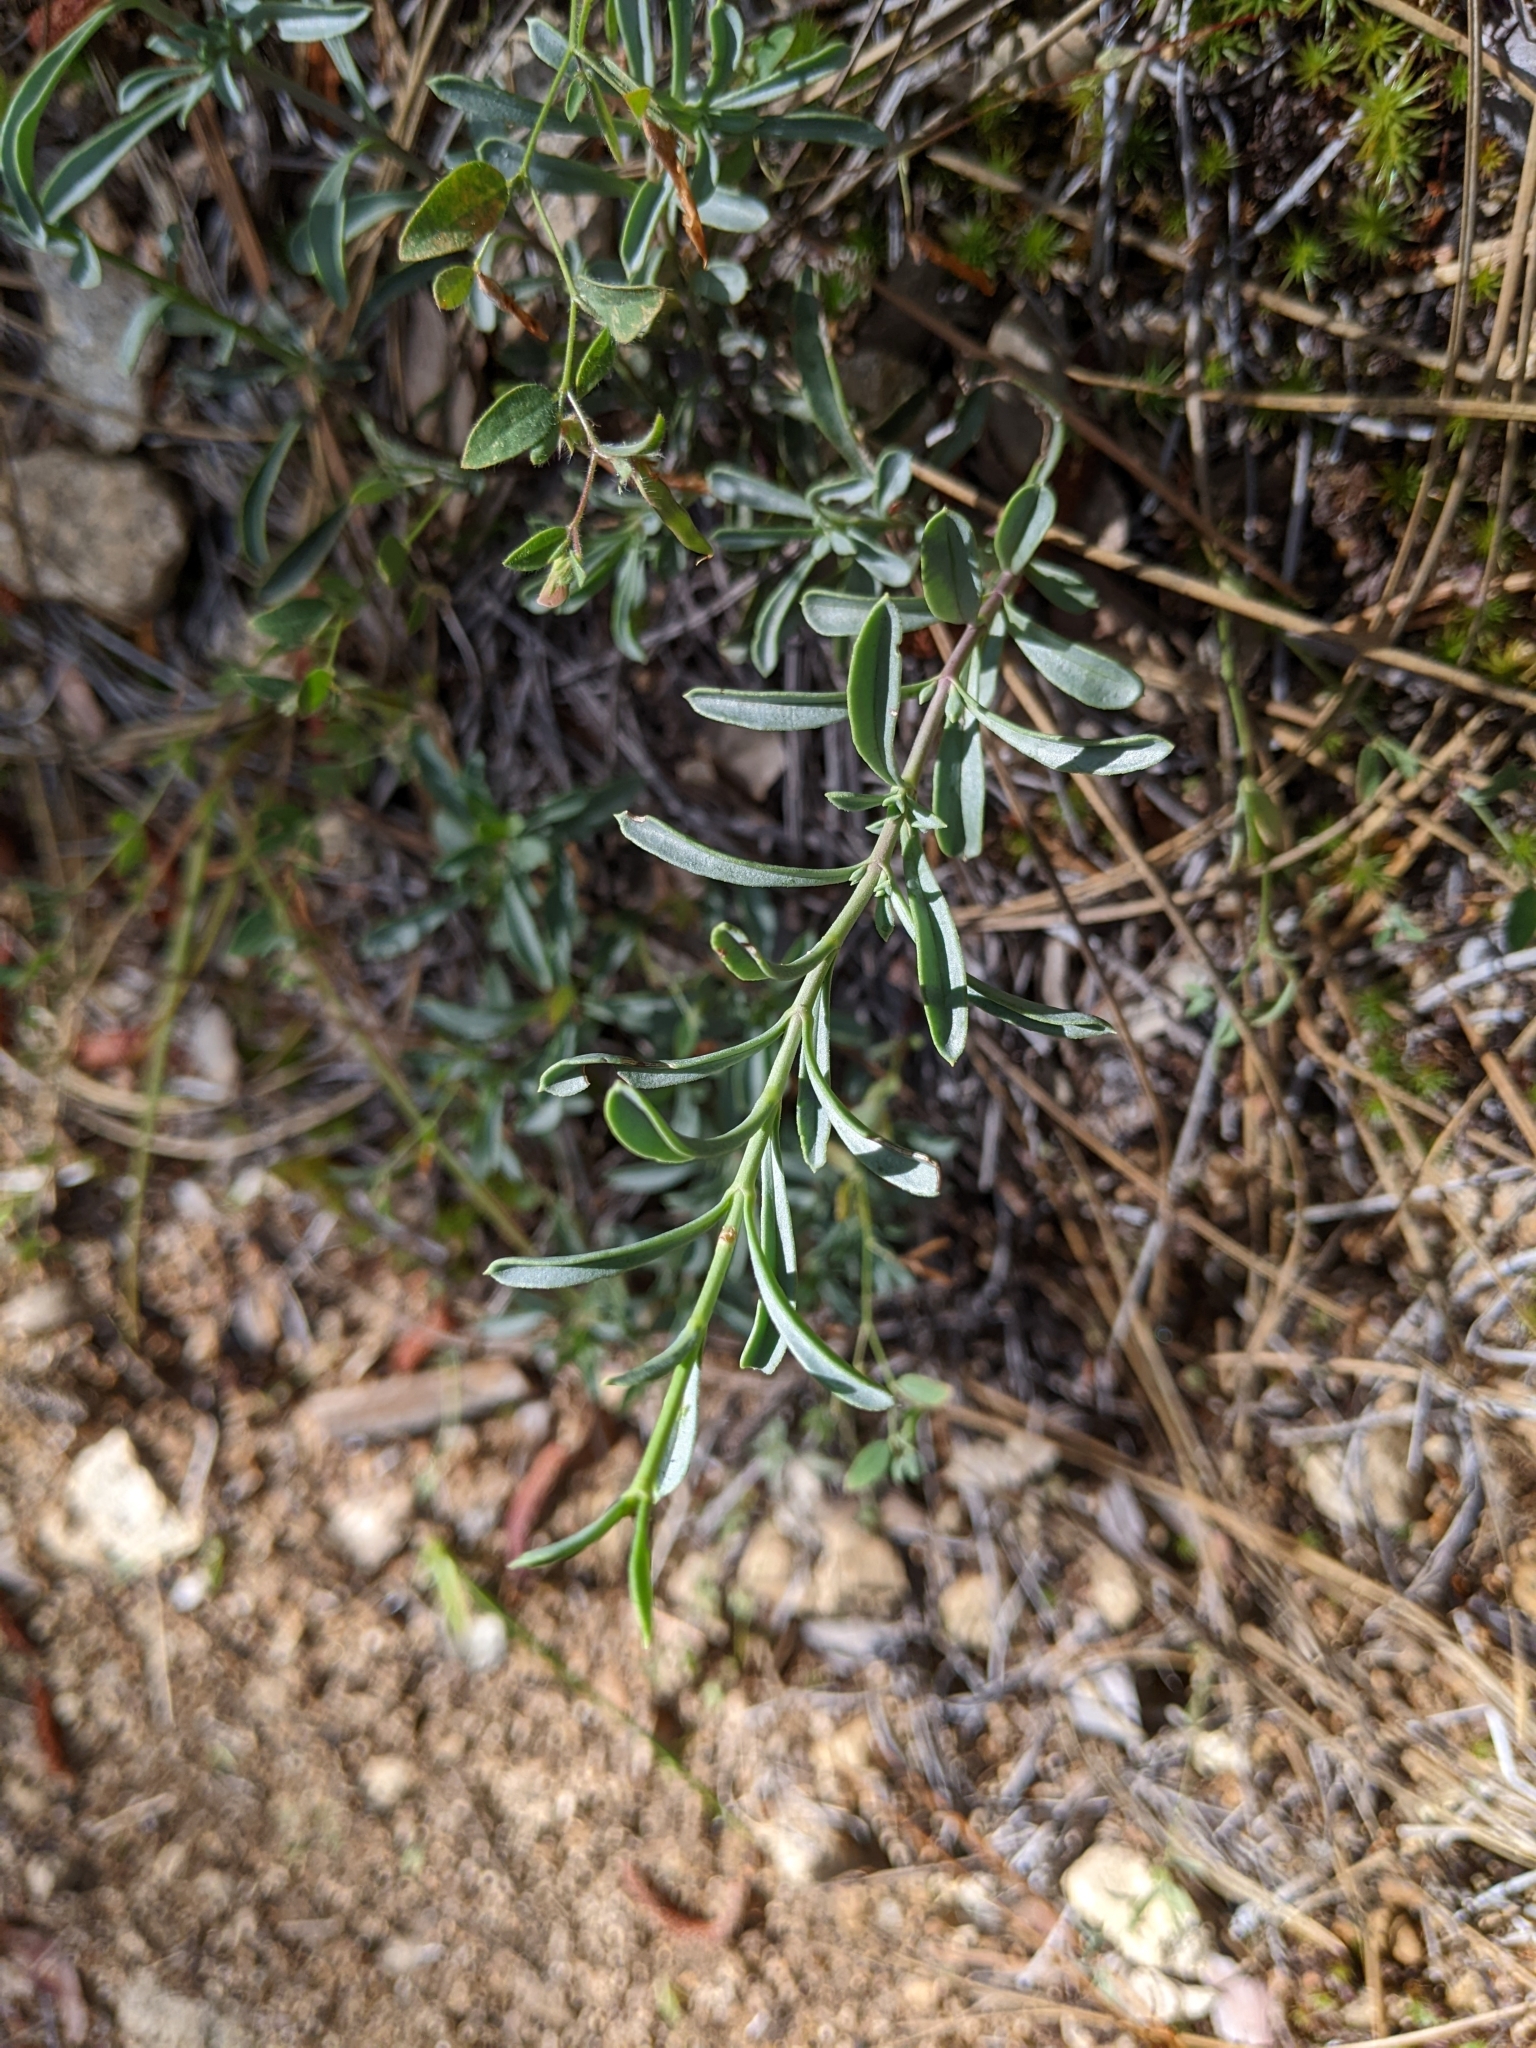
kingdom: Plantae
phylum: Tracheophyta
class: Magnoliopsida
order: Lamiales
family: Plantaginaceae
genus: Penstemon
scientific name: Penstemon parvulus
